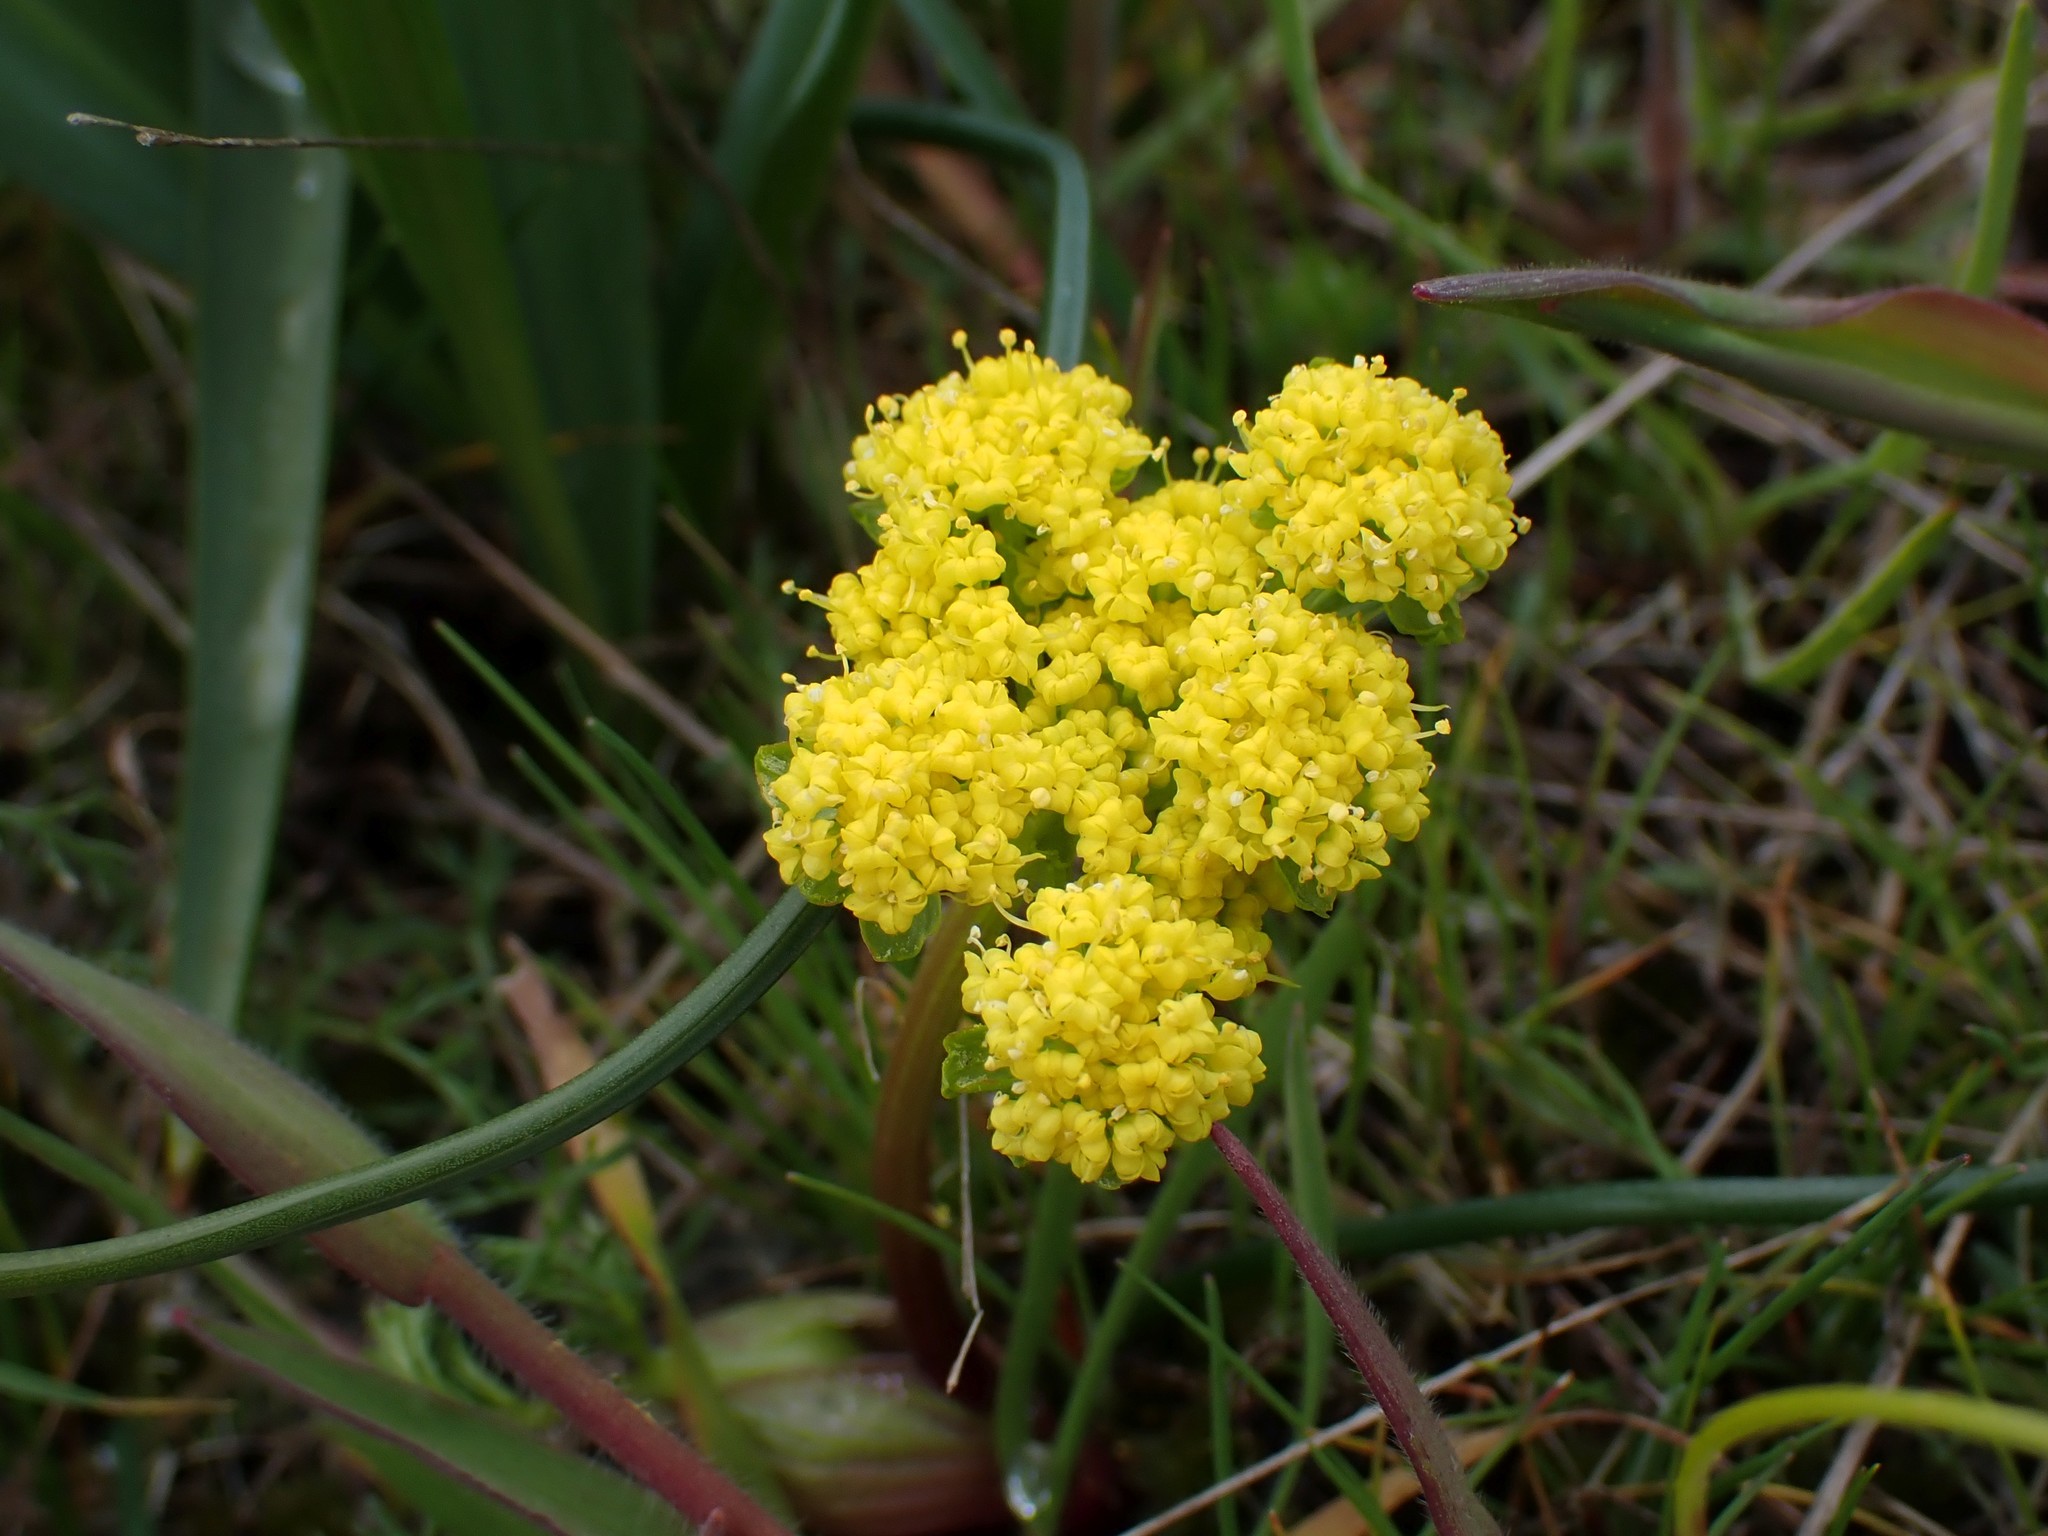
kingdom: Plantae
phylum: Tracheophyta
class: Magnoliopsida
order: Apiales
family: Apiaceae
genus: Lomatium
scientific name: Lomatium utriculatum
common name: Fine-leaf desert-parsley
